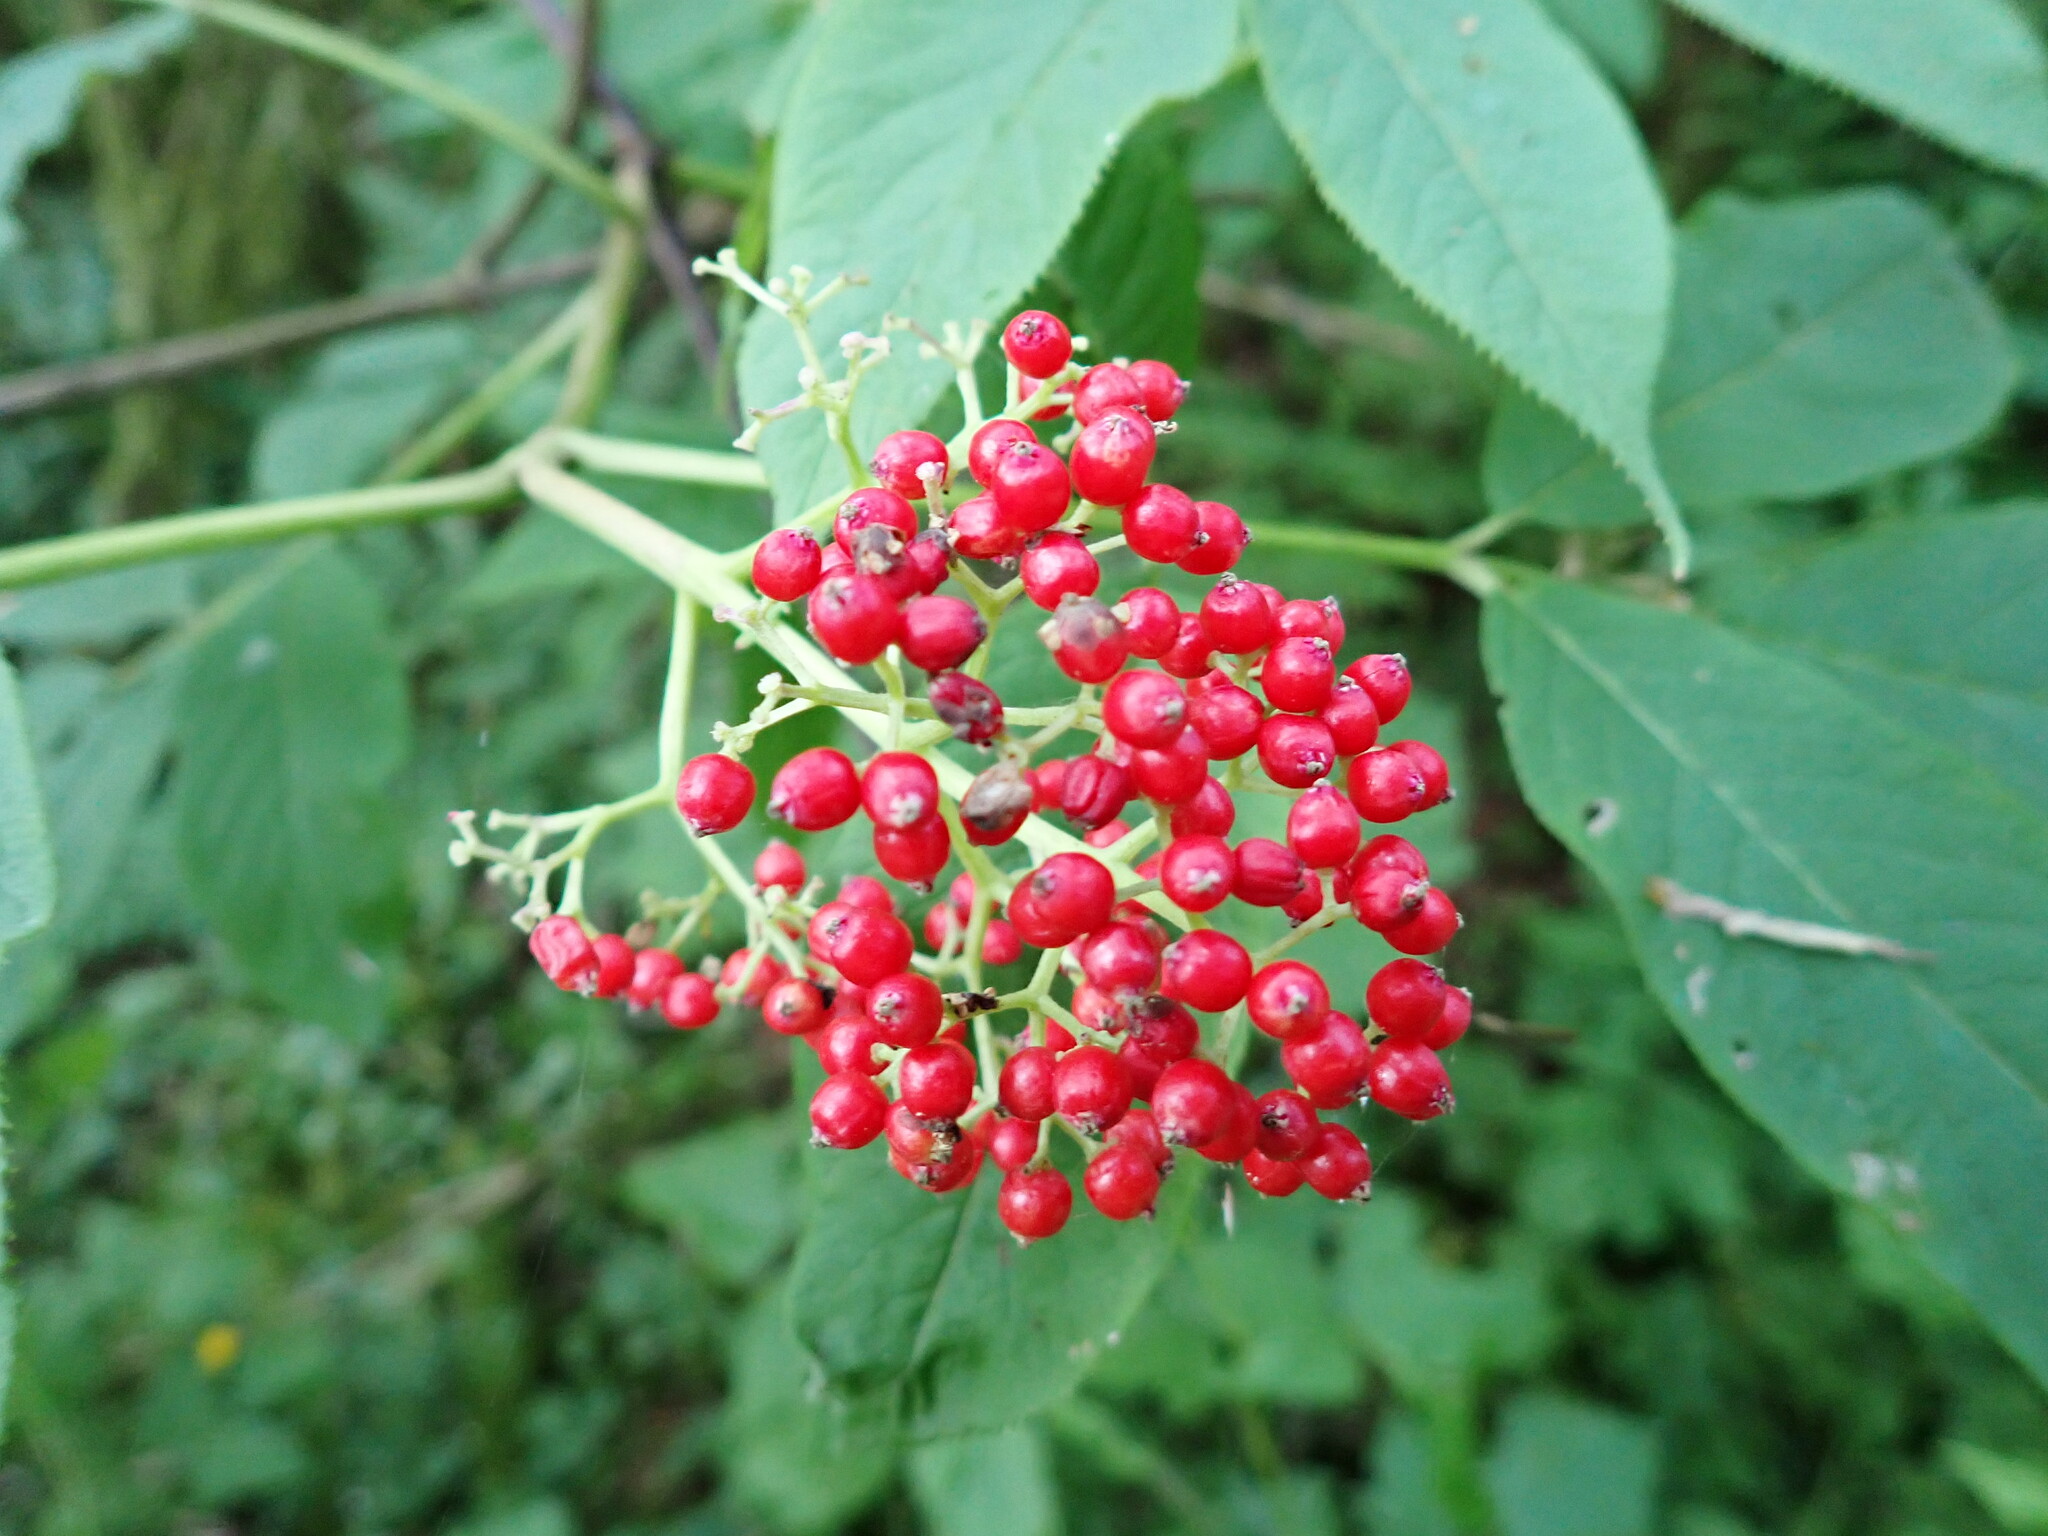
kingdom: Plantae
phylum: Tracheophyta
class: Magnoliopsida
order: Dipsacales
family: Viburnaceae
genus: Sambucus
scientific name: Sambucus racemosa
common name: Red-berried elder
